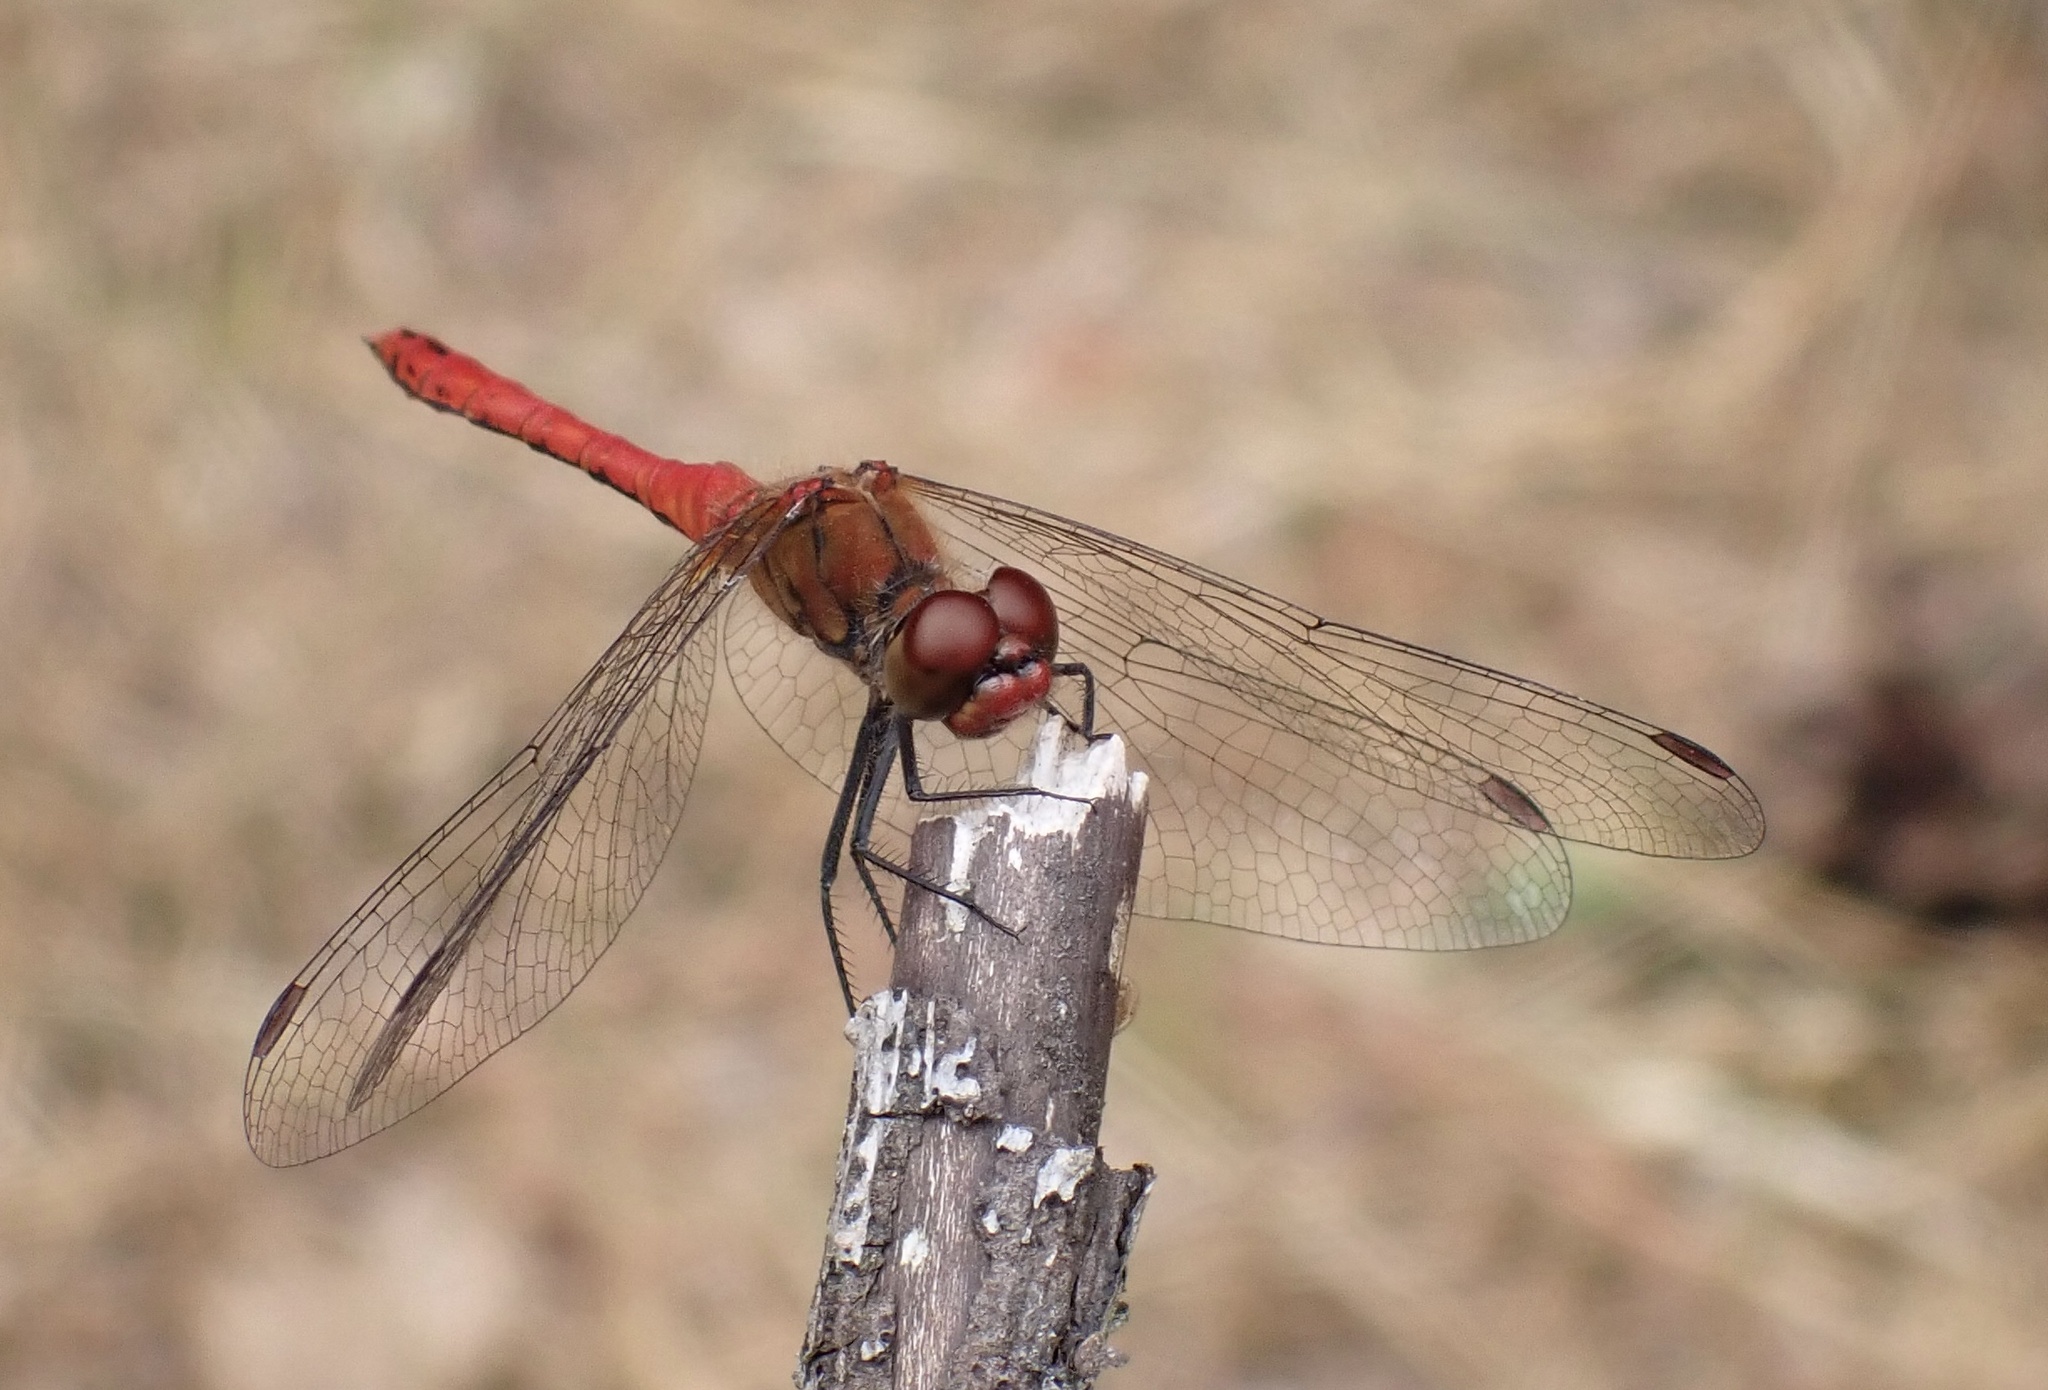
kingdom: Animalia
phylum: Arthropoda
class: Insecta
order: Odonata
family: Libellulidae
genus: Sympetrum
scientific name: Sympetrum sanguineum
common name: Ruddy darter
